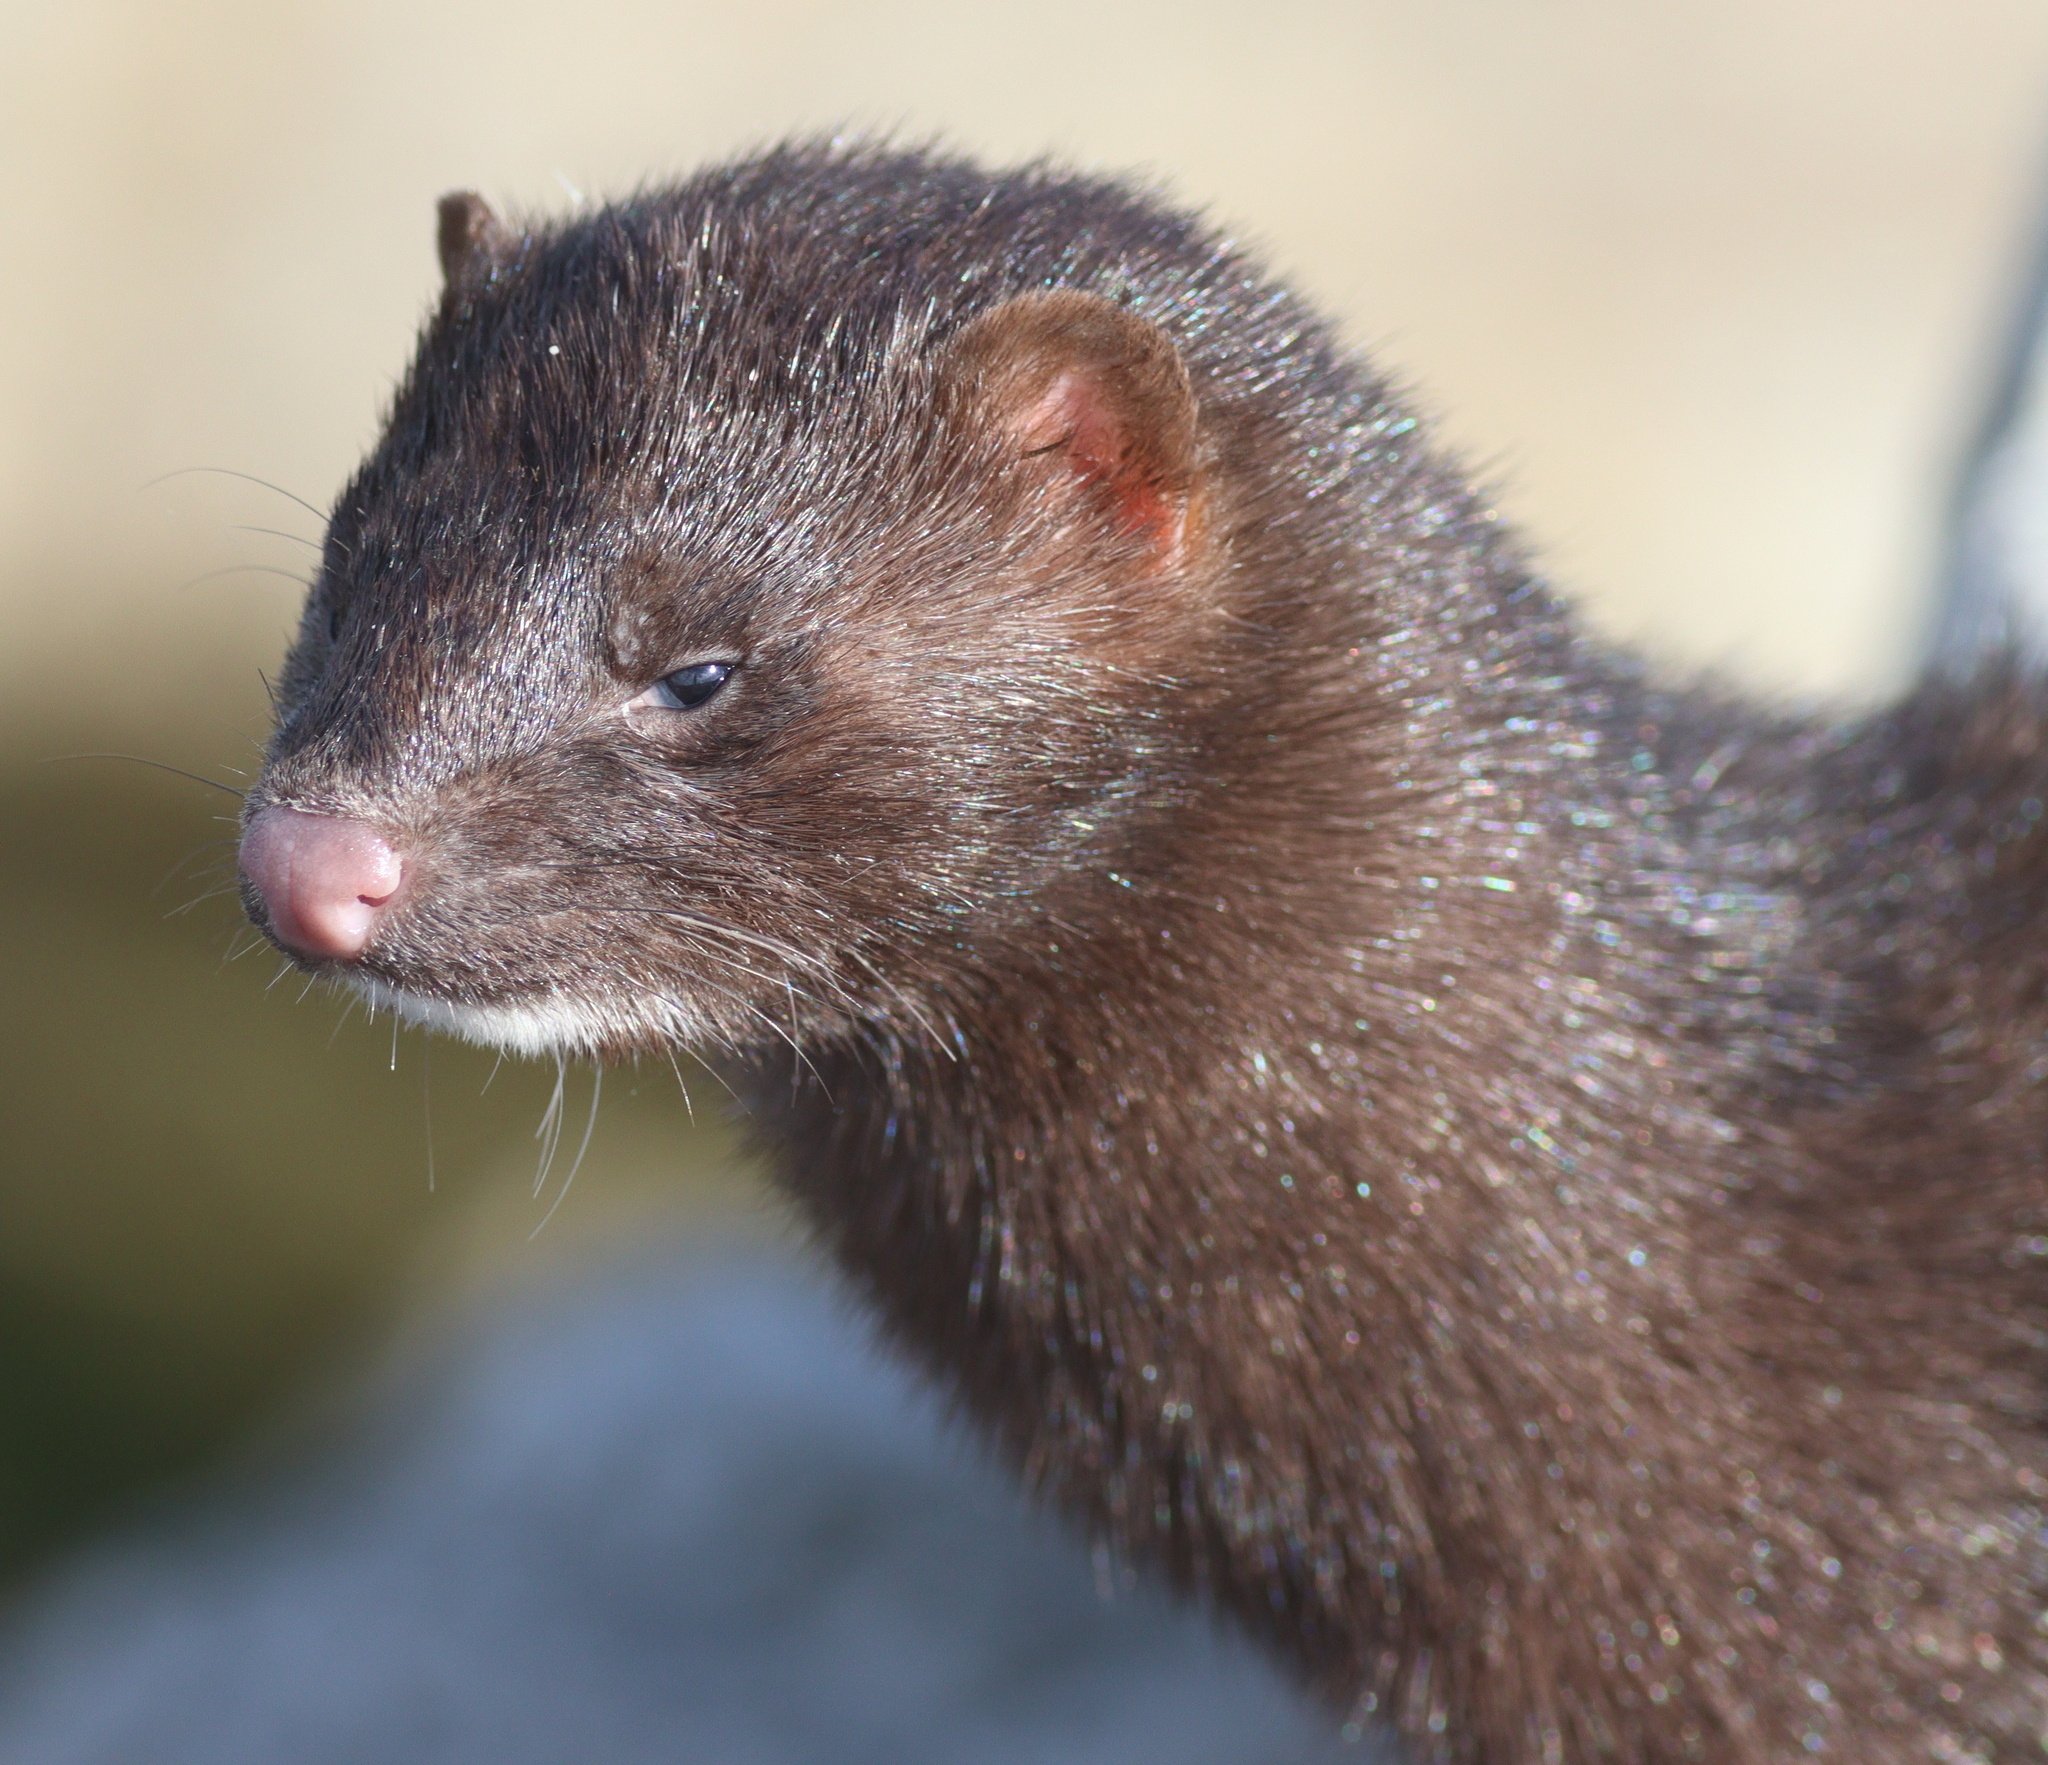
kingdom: Animalia
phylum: Chordata
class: Mammalia
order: Carnivora
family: Mustelidae
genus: Mustela
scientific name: Mustela
